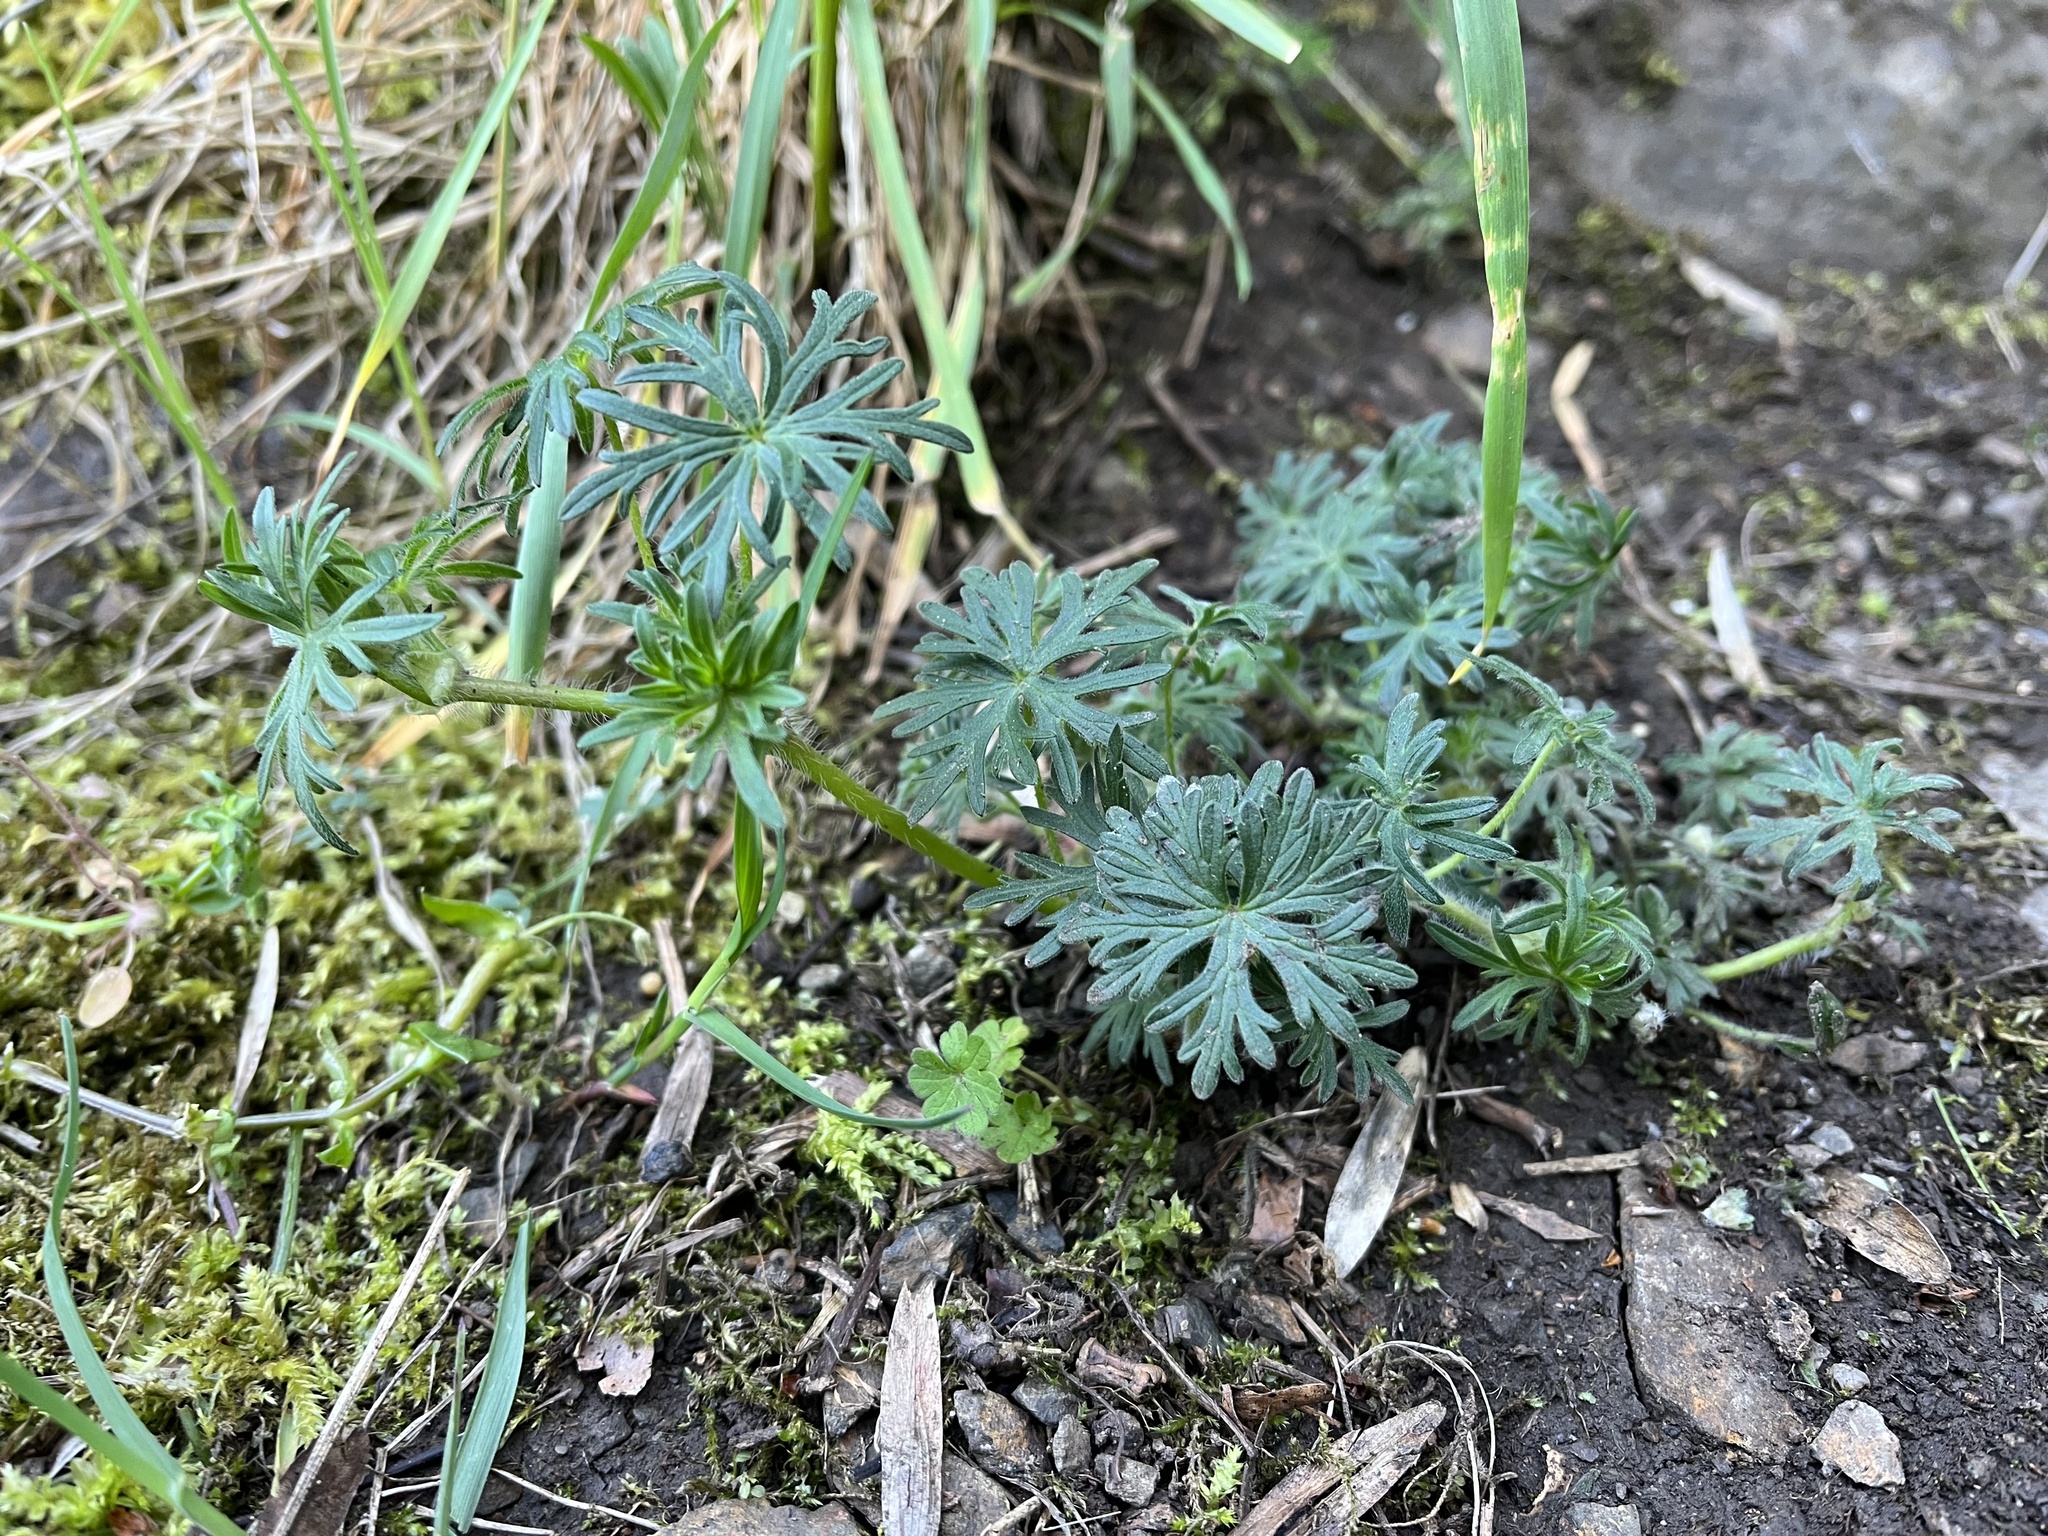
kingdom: Plantae
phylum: Tracheophyta
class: Magnoliopsida
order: Geraniales
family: Geraniaceae
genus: Geranium
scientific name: Geranium sanguineum
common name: Bloody crane's-bill
